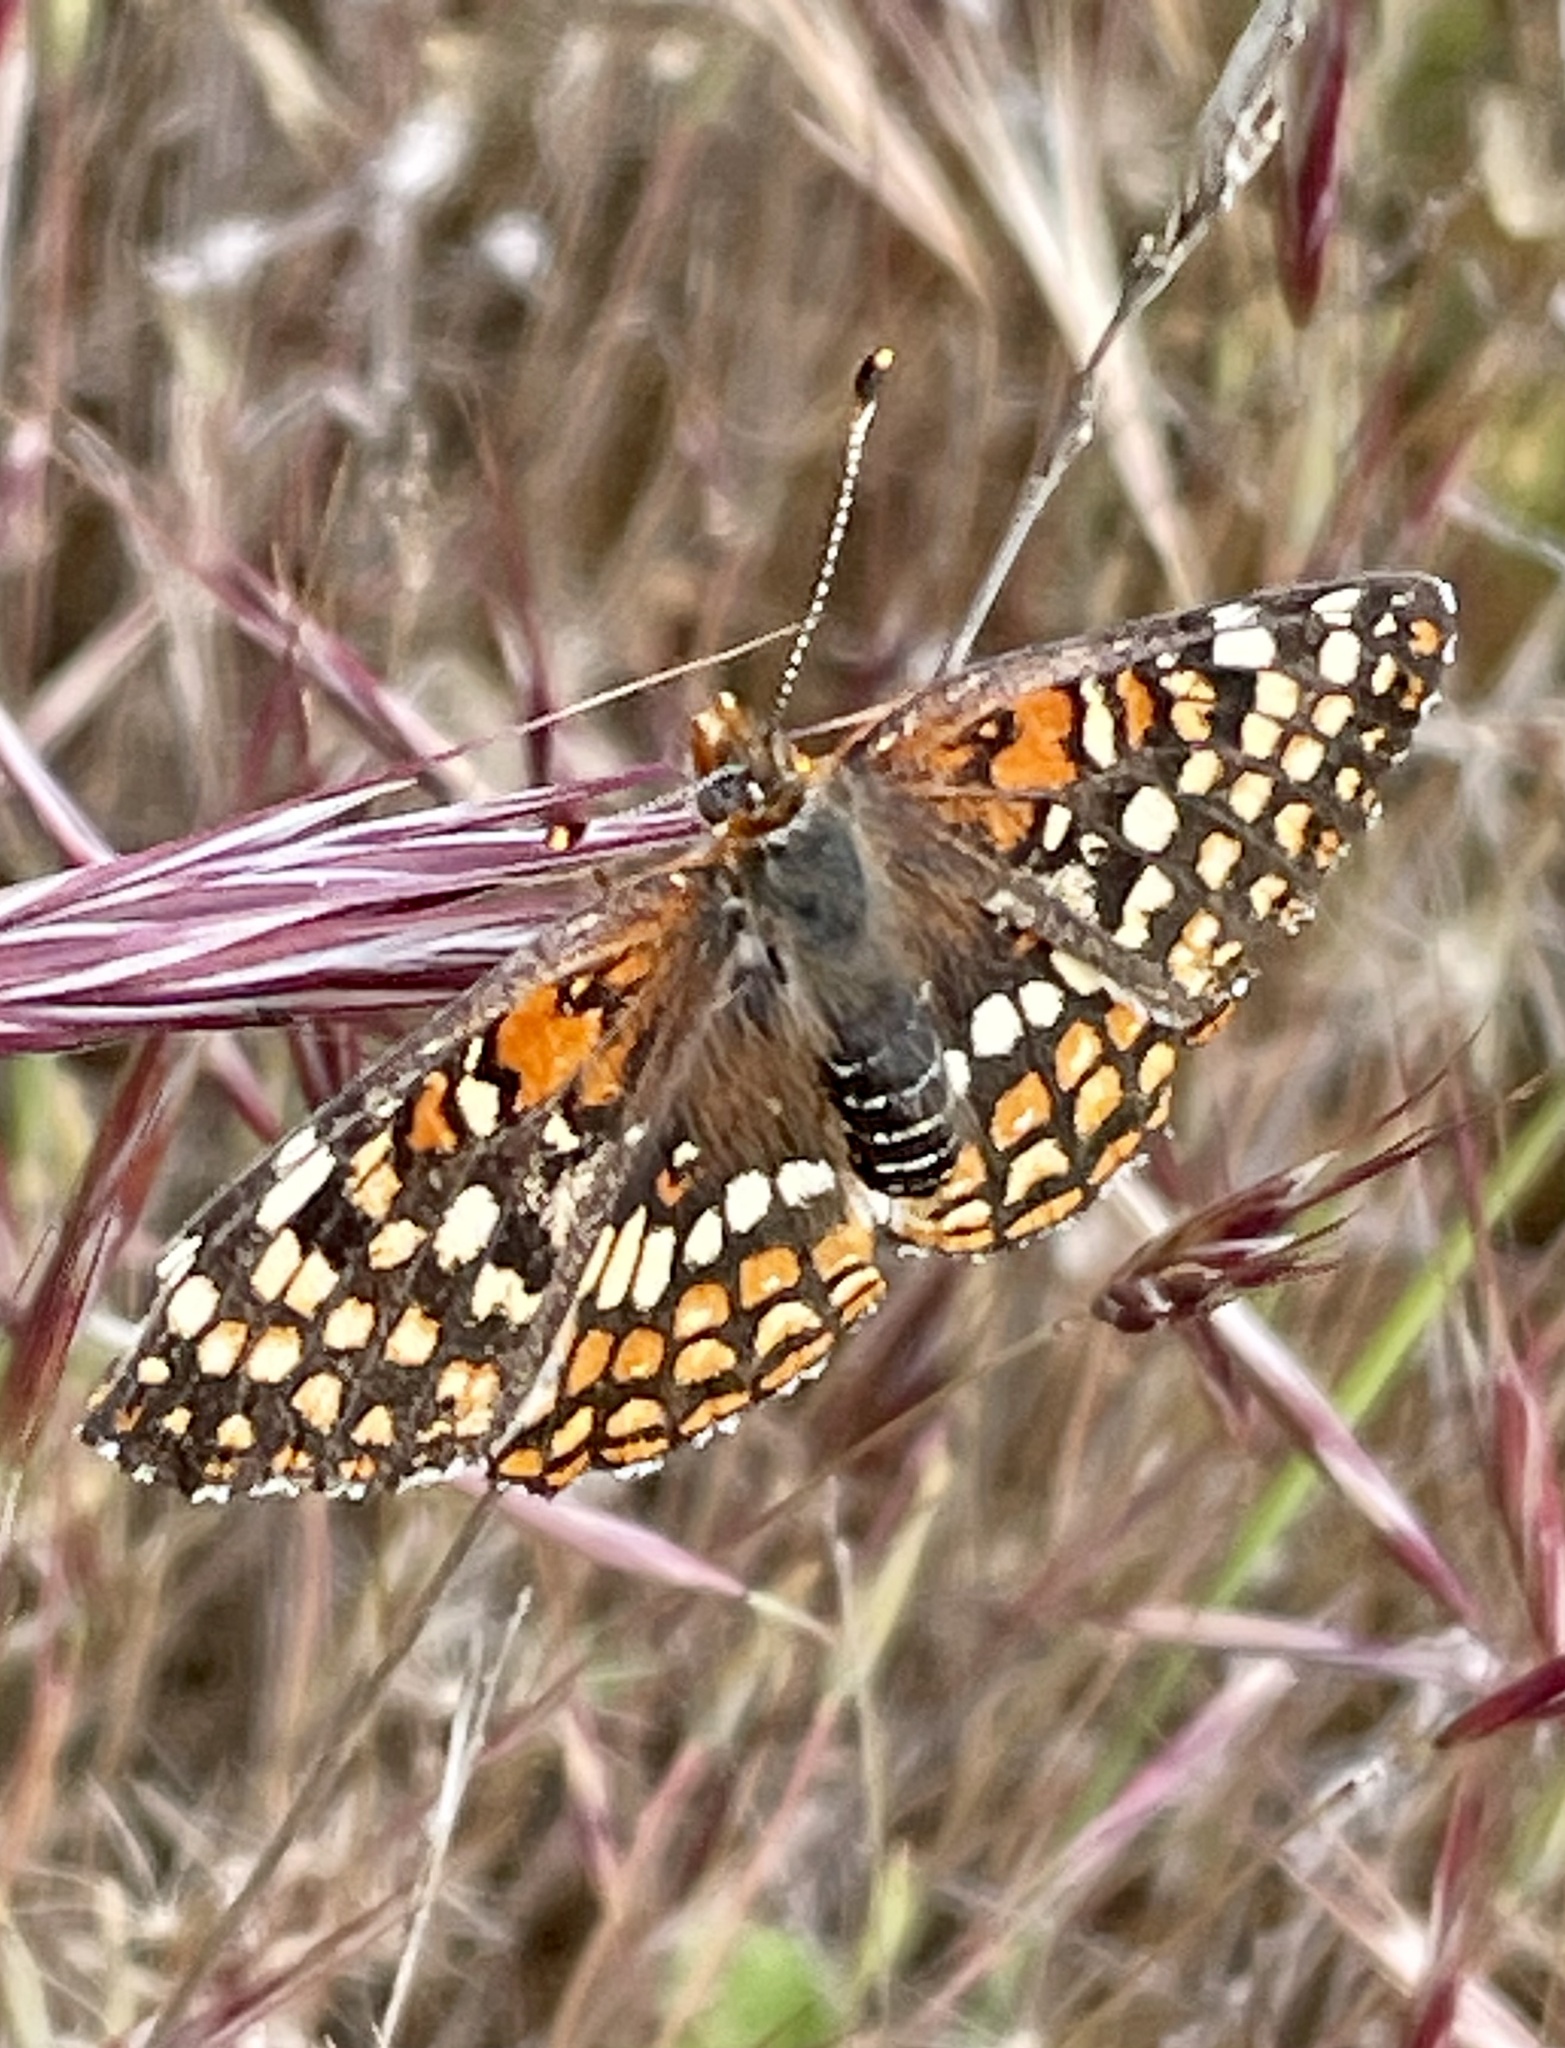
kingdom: Animalia
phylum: Arthropoda
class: Insecta
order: Lepidoptera
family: Nymphalidae
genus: Chlosyne
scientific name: Chlosyne gabbii
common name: Gabb's checkerspot
